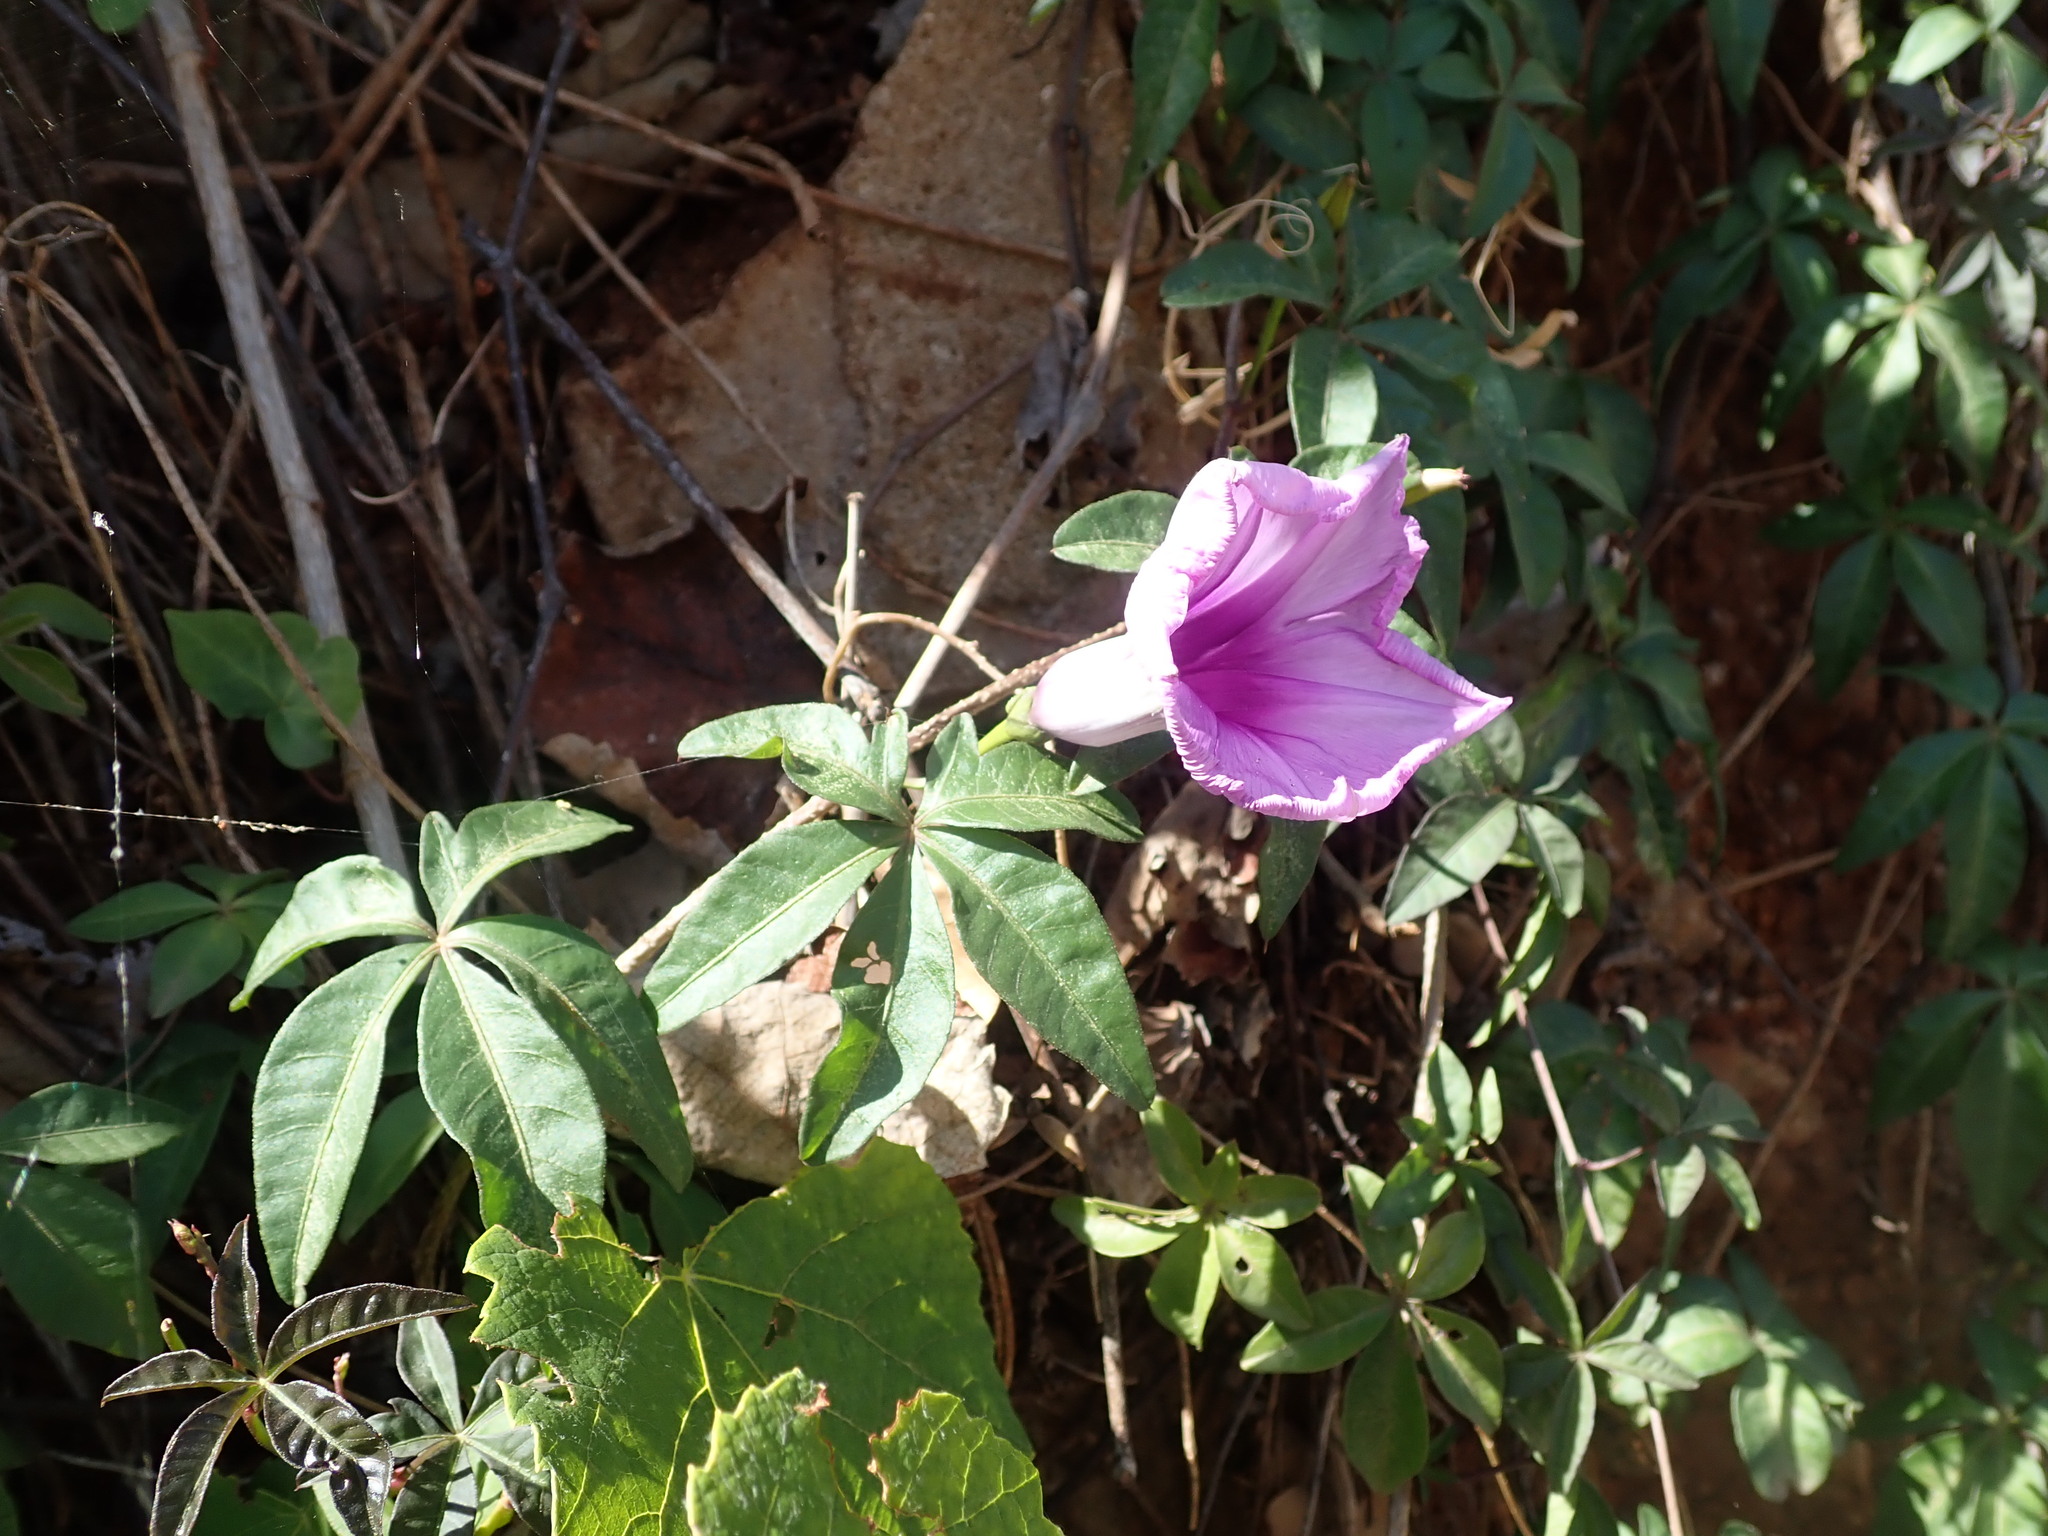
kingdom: Plantae
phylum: Tracheophyta
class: Magnoliopsida
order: Solanales
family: Convolvulaceae
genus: Ipomoea
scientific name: Ipomoea cairica
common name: Mile a minute vine
